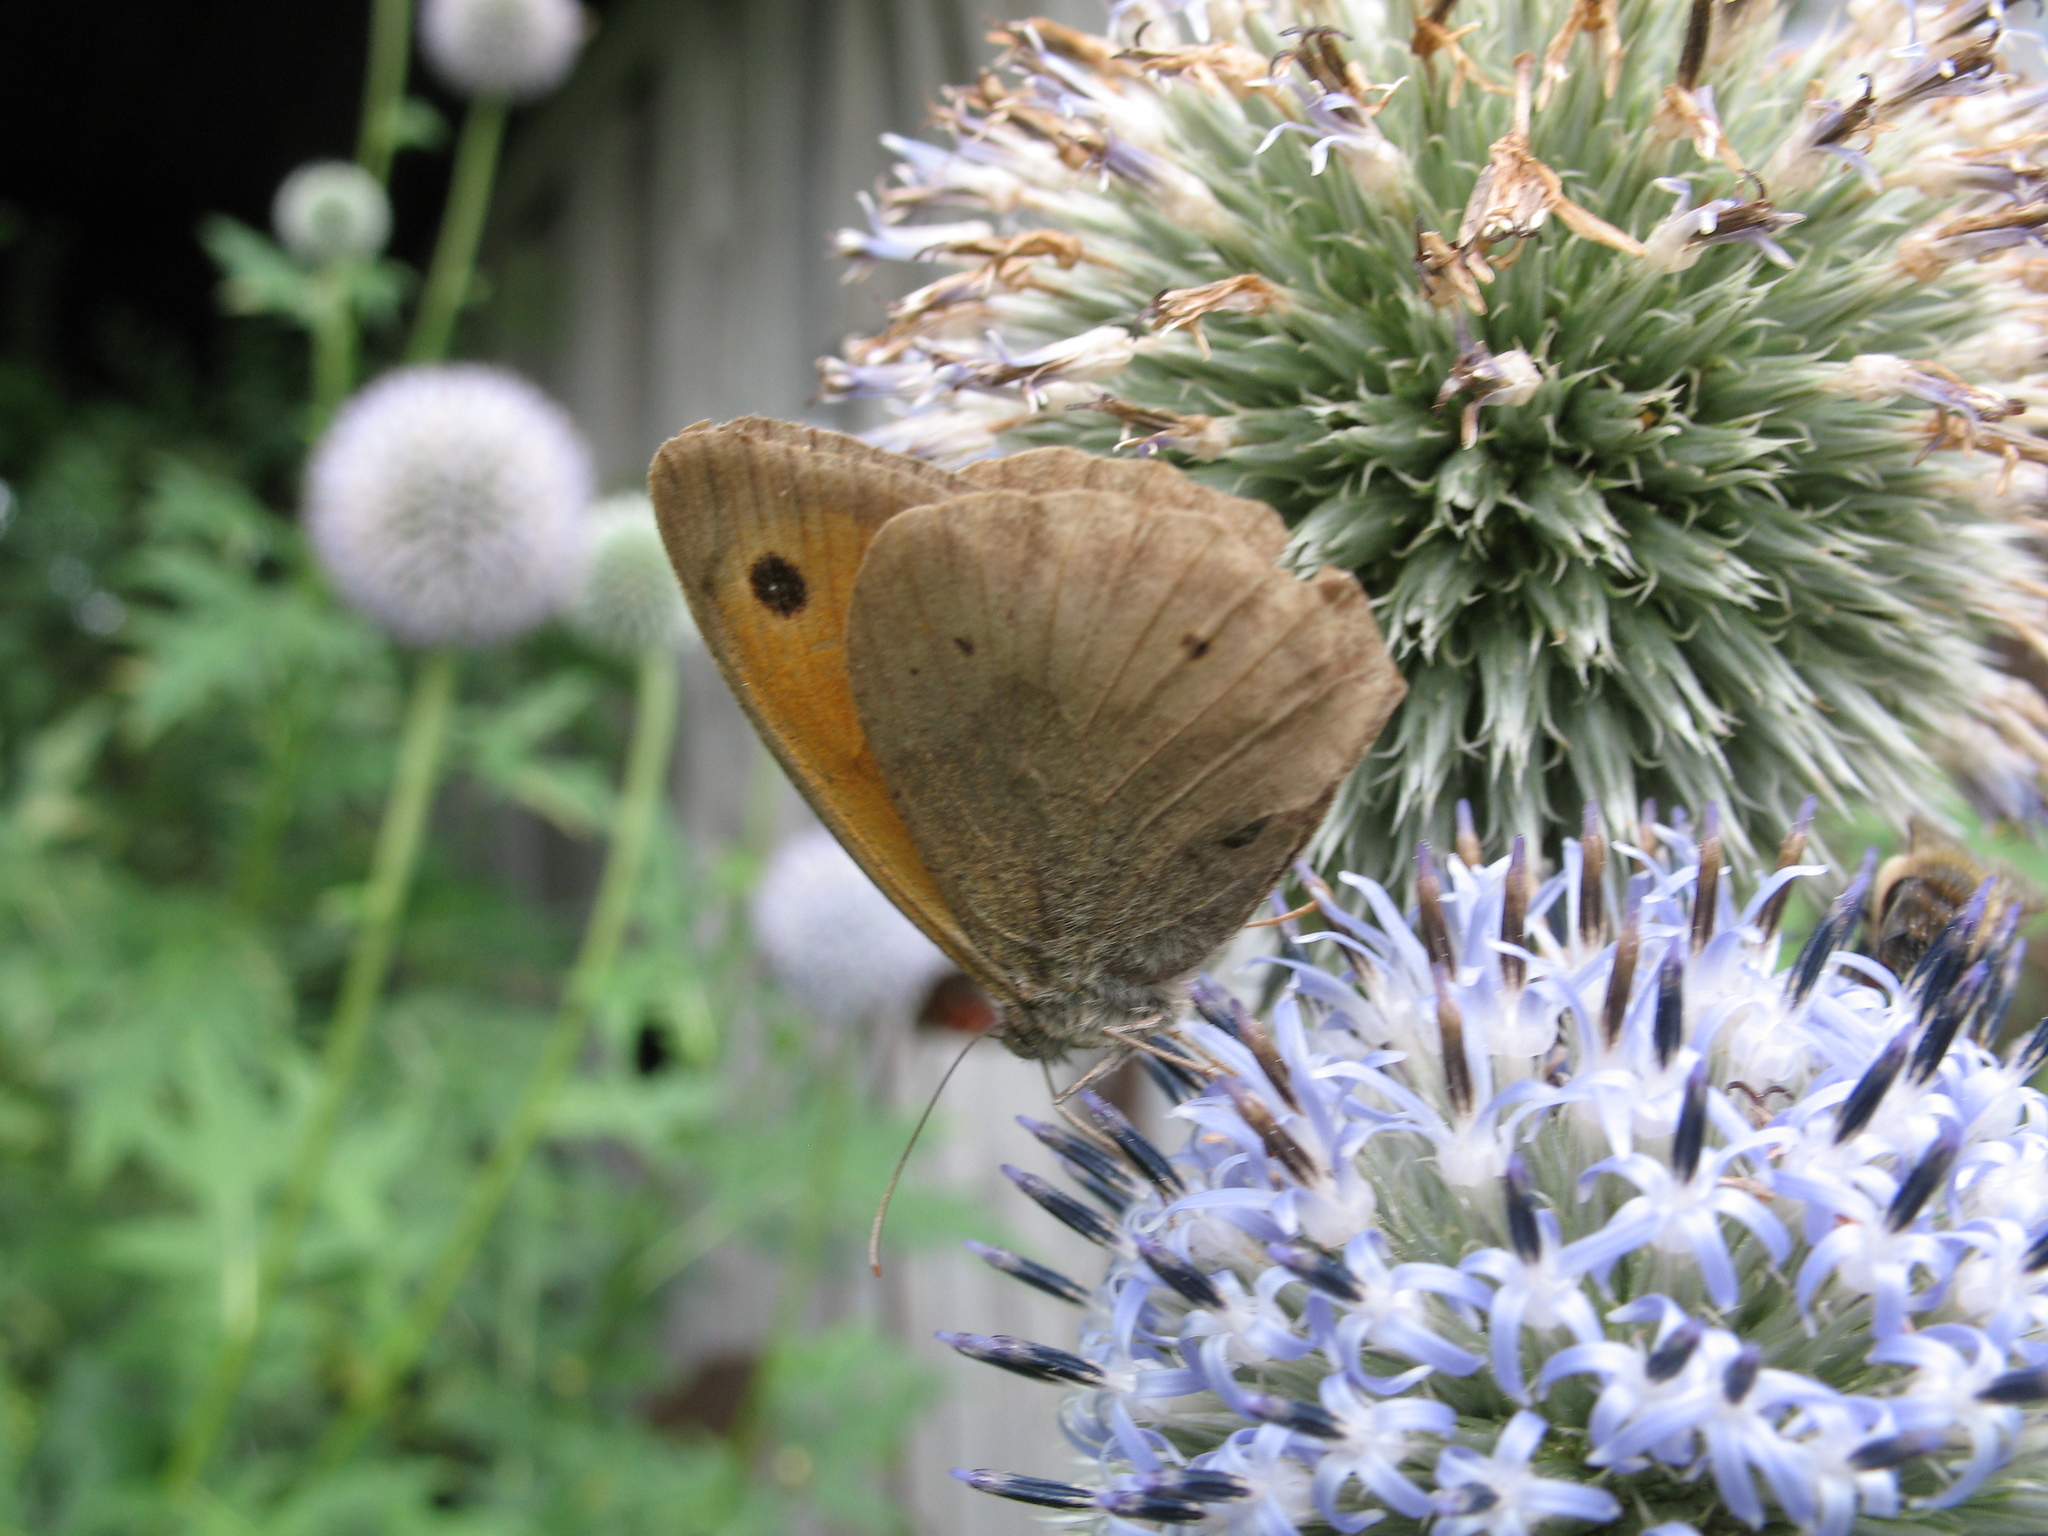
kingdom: Animalia
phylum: Arthropoda
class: Insecta
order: Lepidoptera
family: Nymphalidae
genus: Maniola
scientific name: Maniola jurtina
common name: Meadow brown
